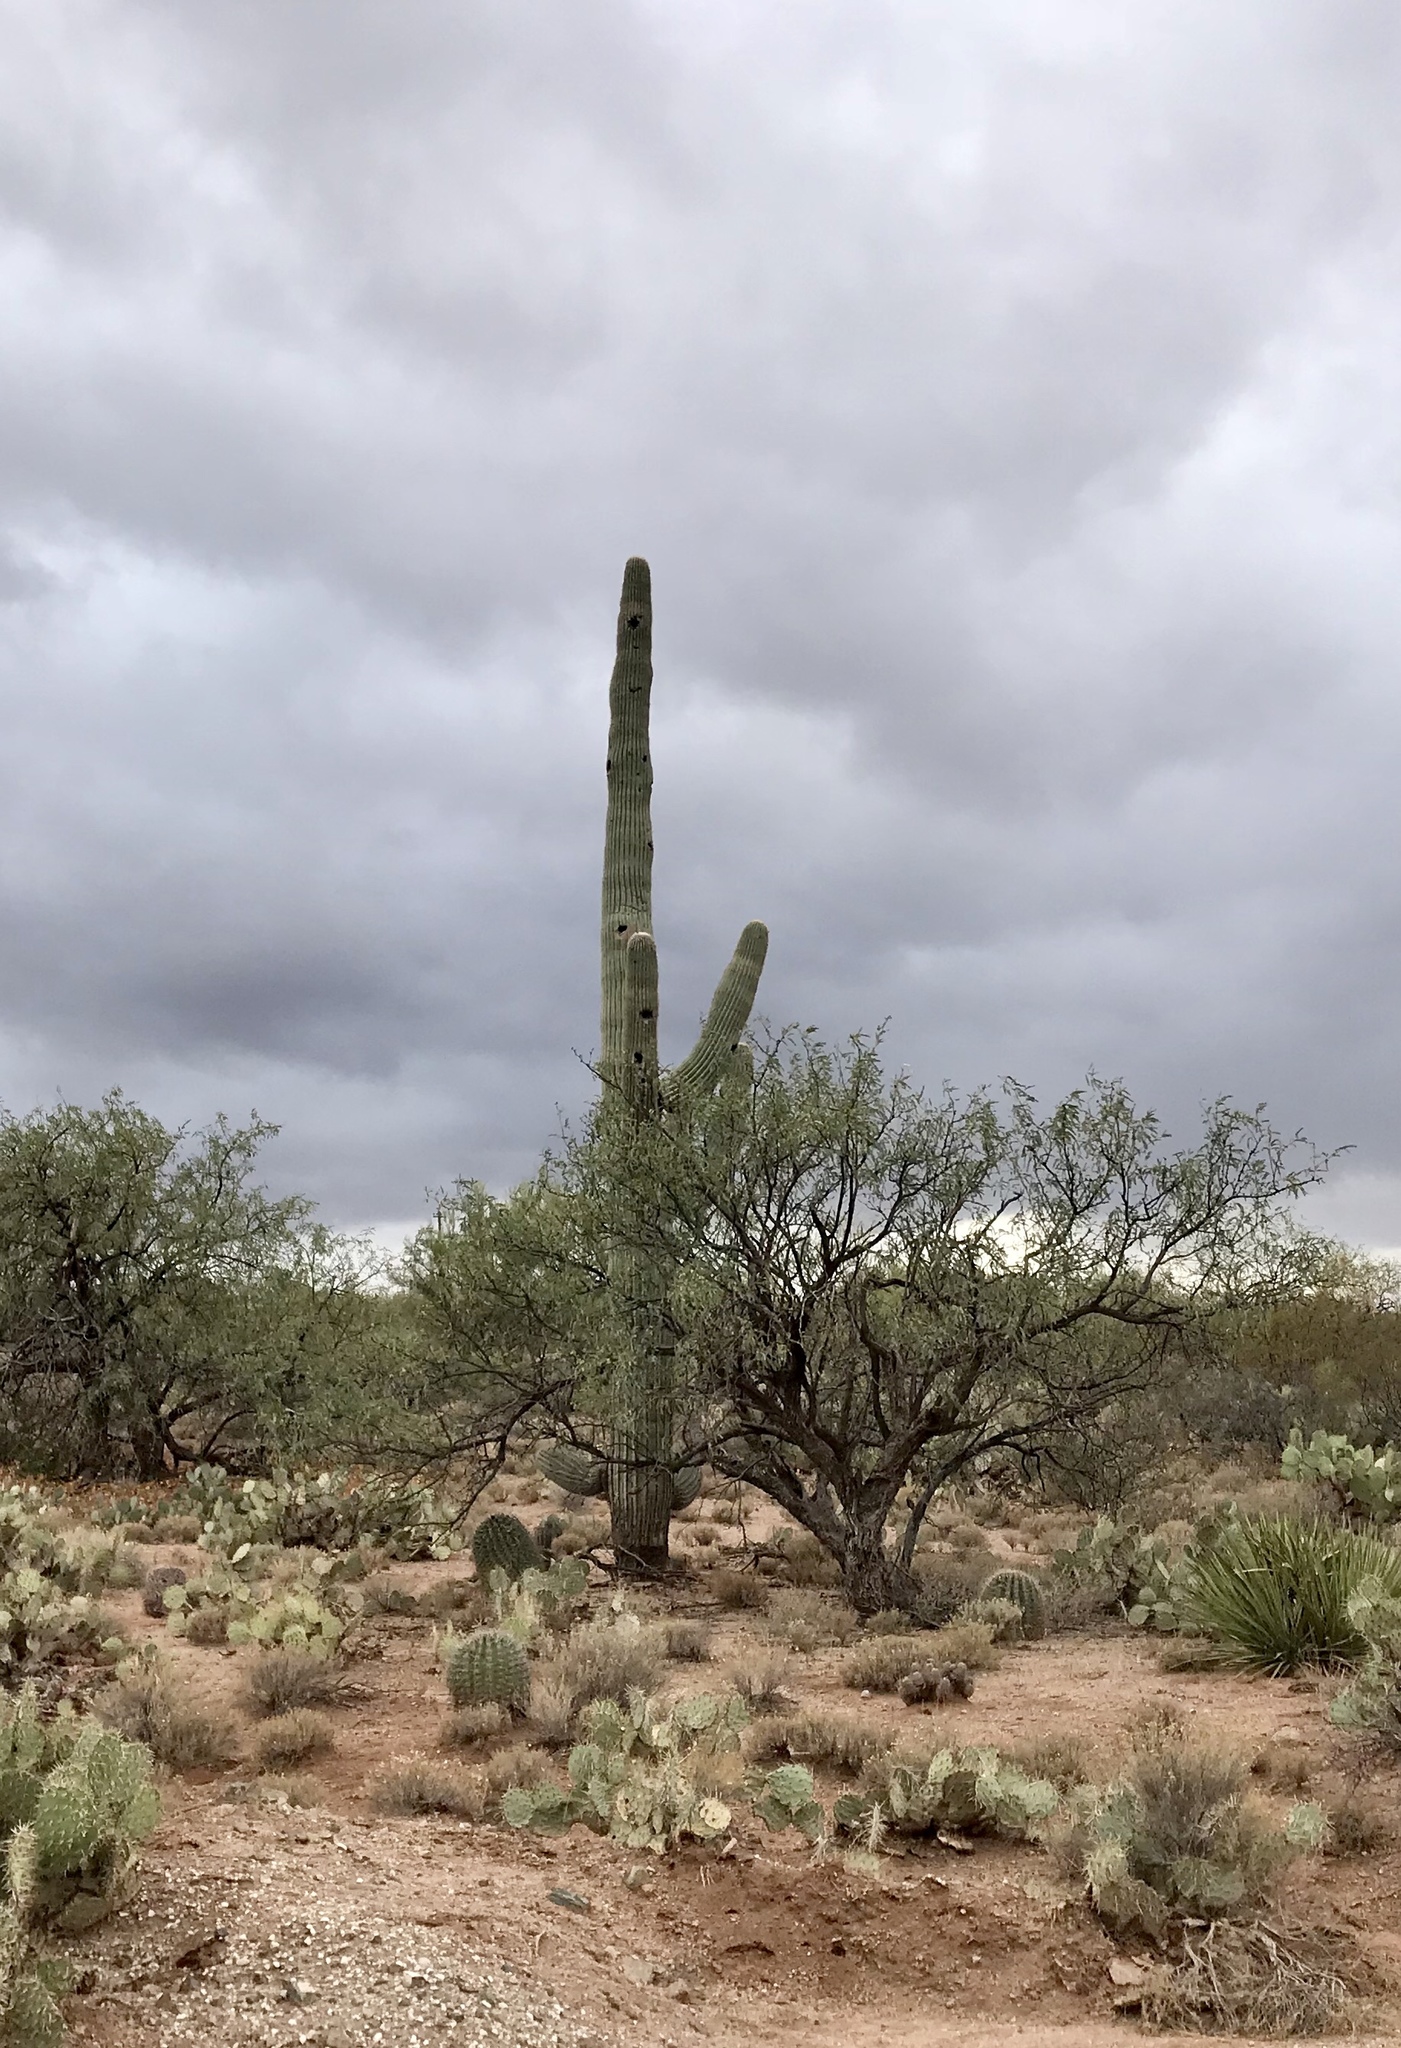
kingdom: Plantae
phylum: Tracheophyta
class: Magnoliopsida
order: Caryophyllales
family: Cactaceae
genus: Carnegiea
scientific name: Carnegiea gigantea
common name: Saguaro
